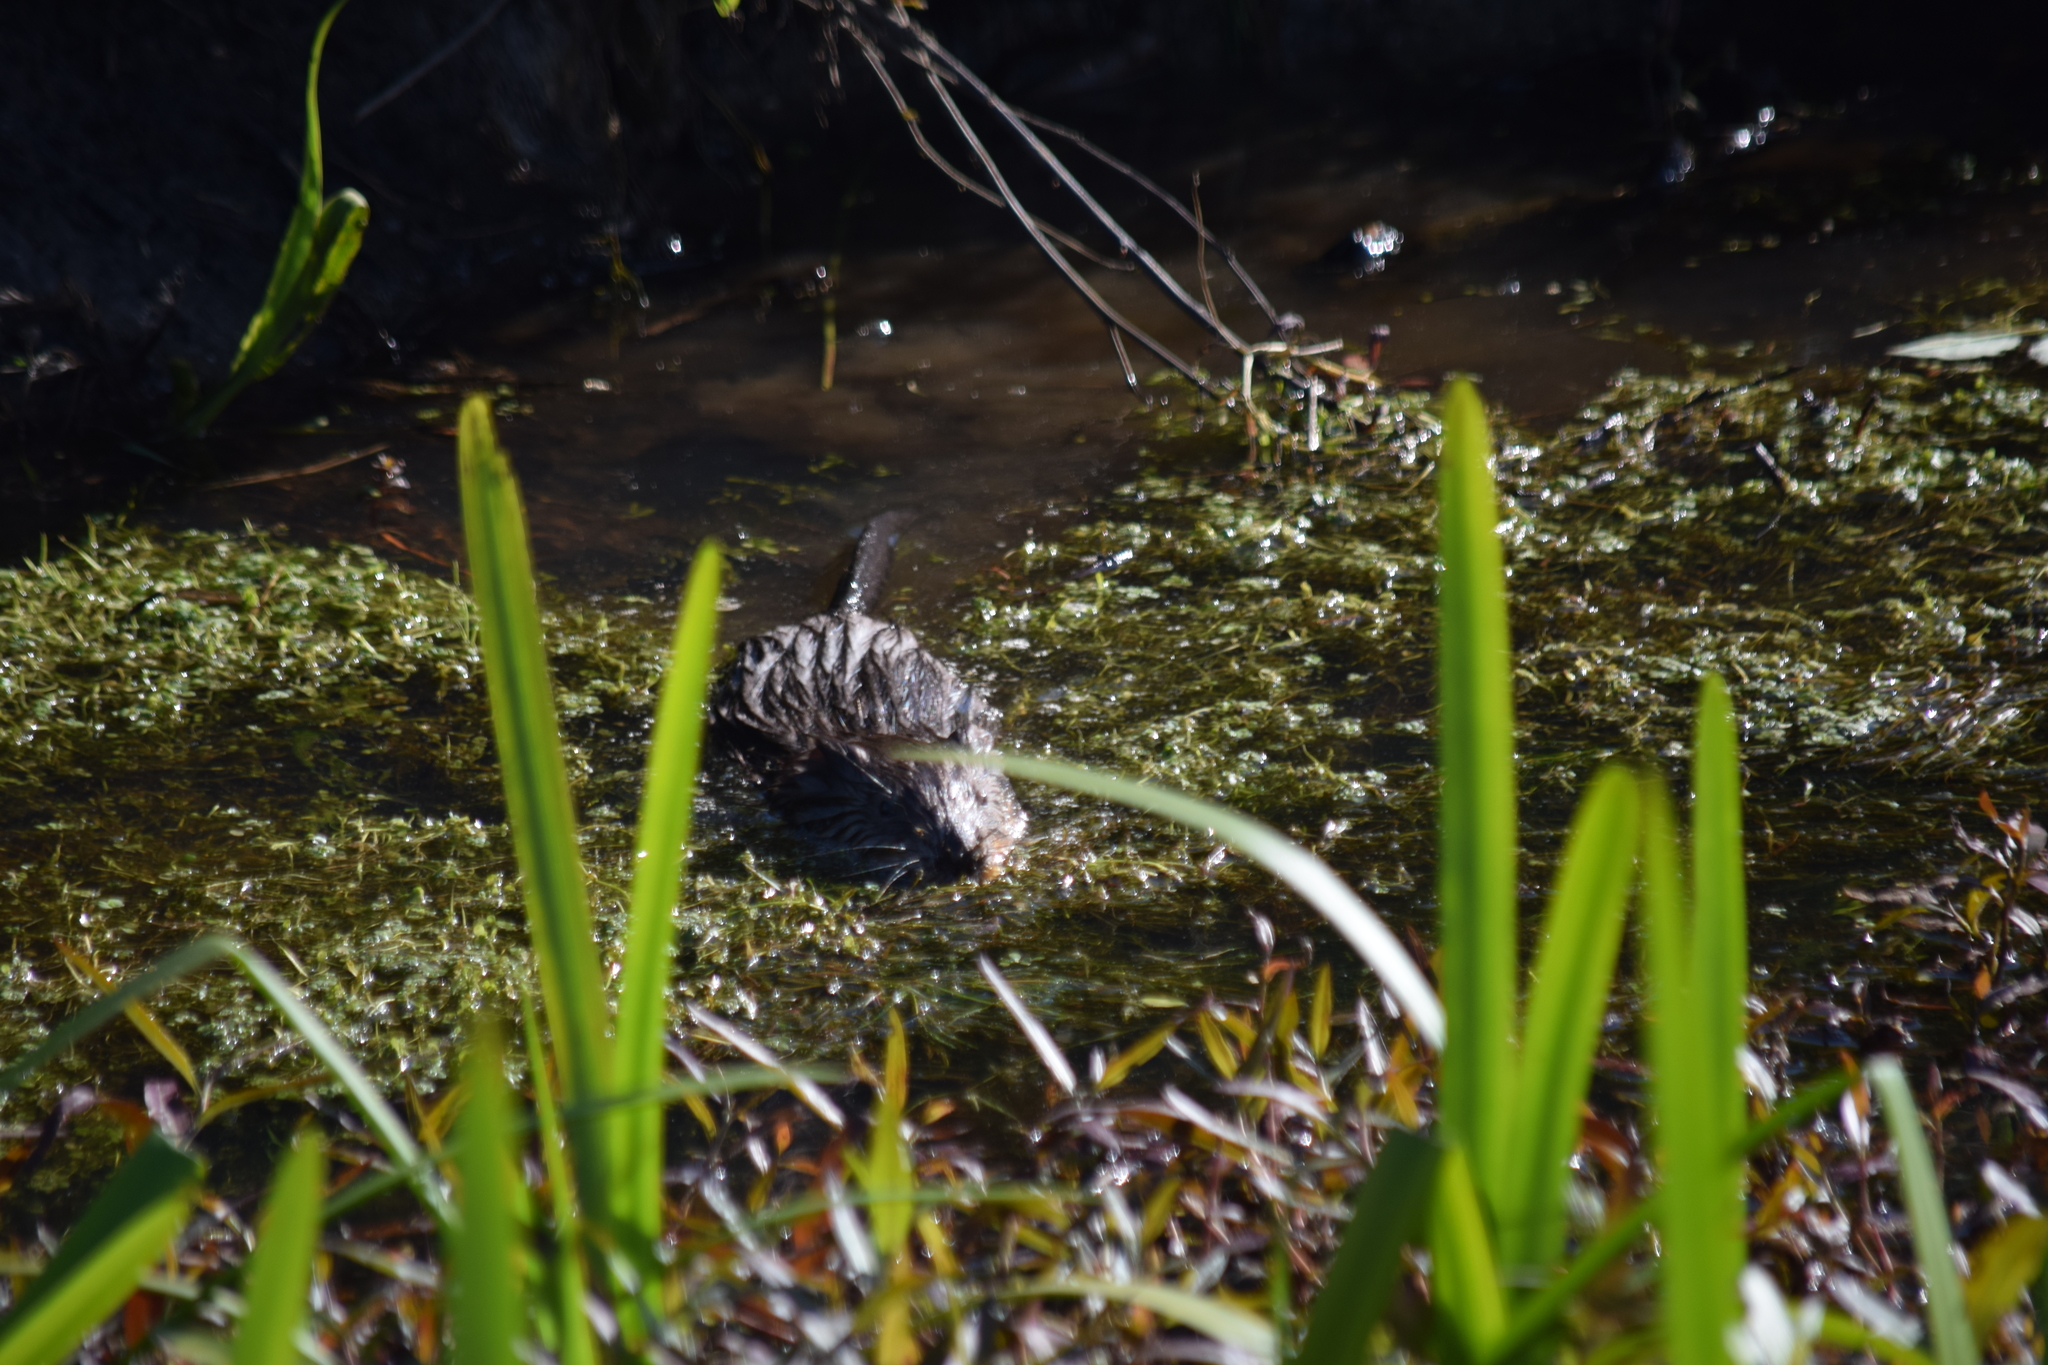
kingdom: Animalia
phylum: Chordata
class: Mammalia
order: Rodentia
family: Cricetidae
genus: Ondatra
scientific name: Ondatra zibethicus
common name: Muskrat
